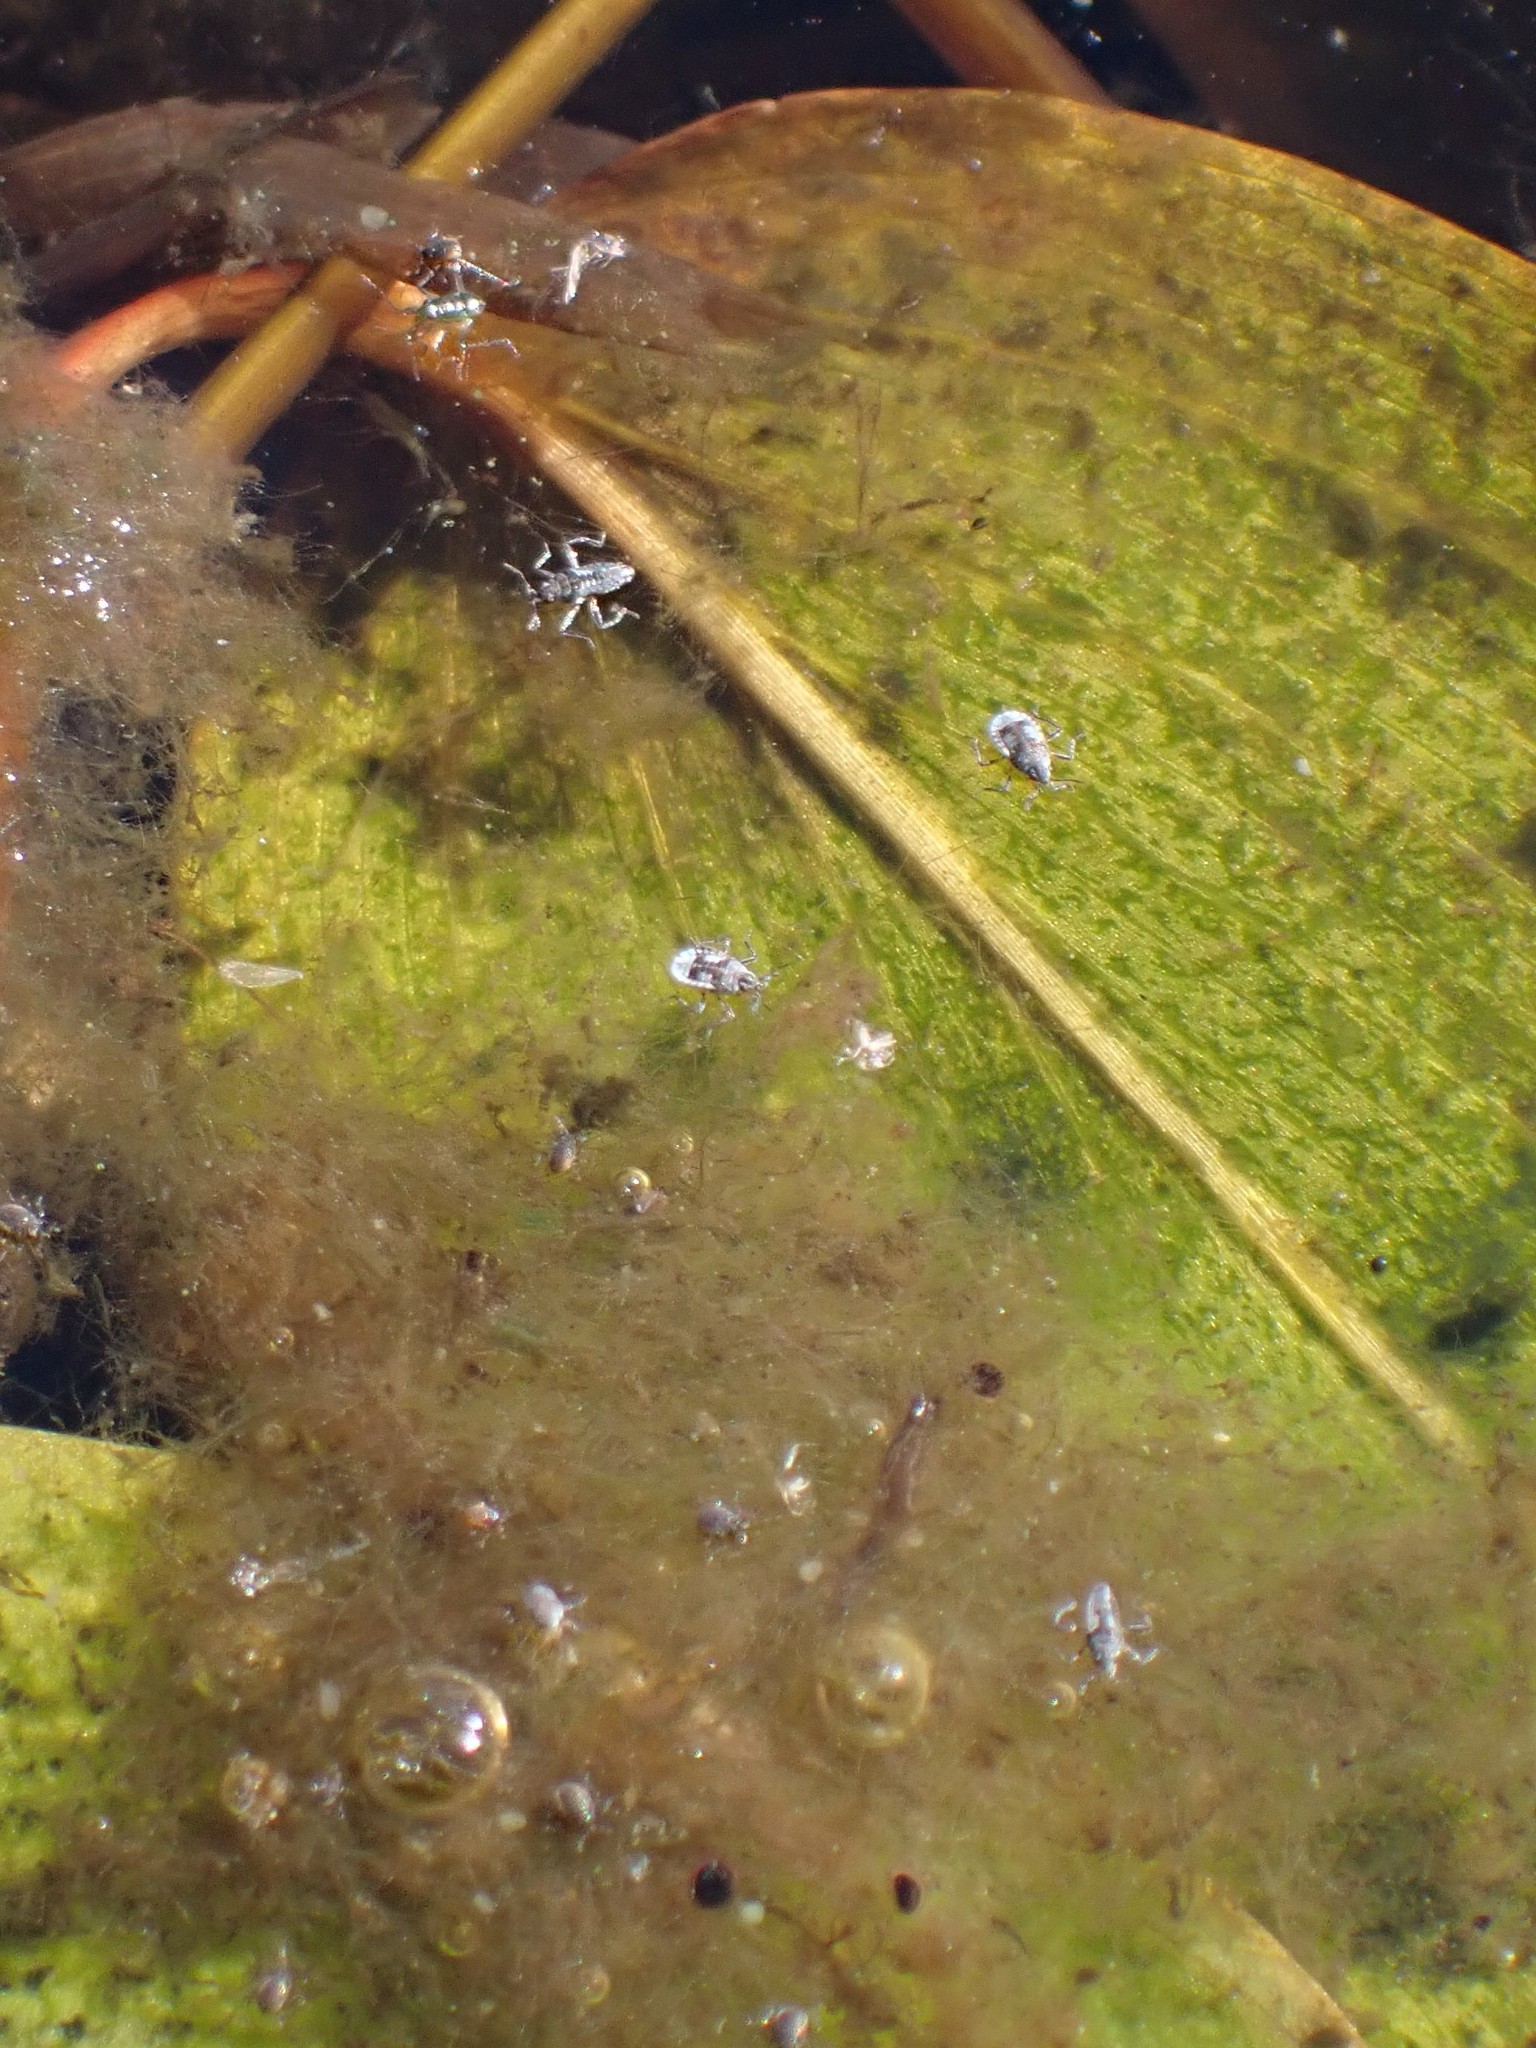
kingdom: Animalia
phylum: Arthropoda
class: Insecta
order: Hemiptera
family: Veliidae
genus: Microvelia
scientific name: Microvelia pulchella
